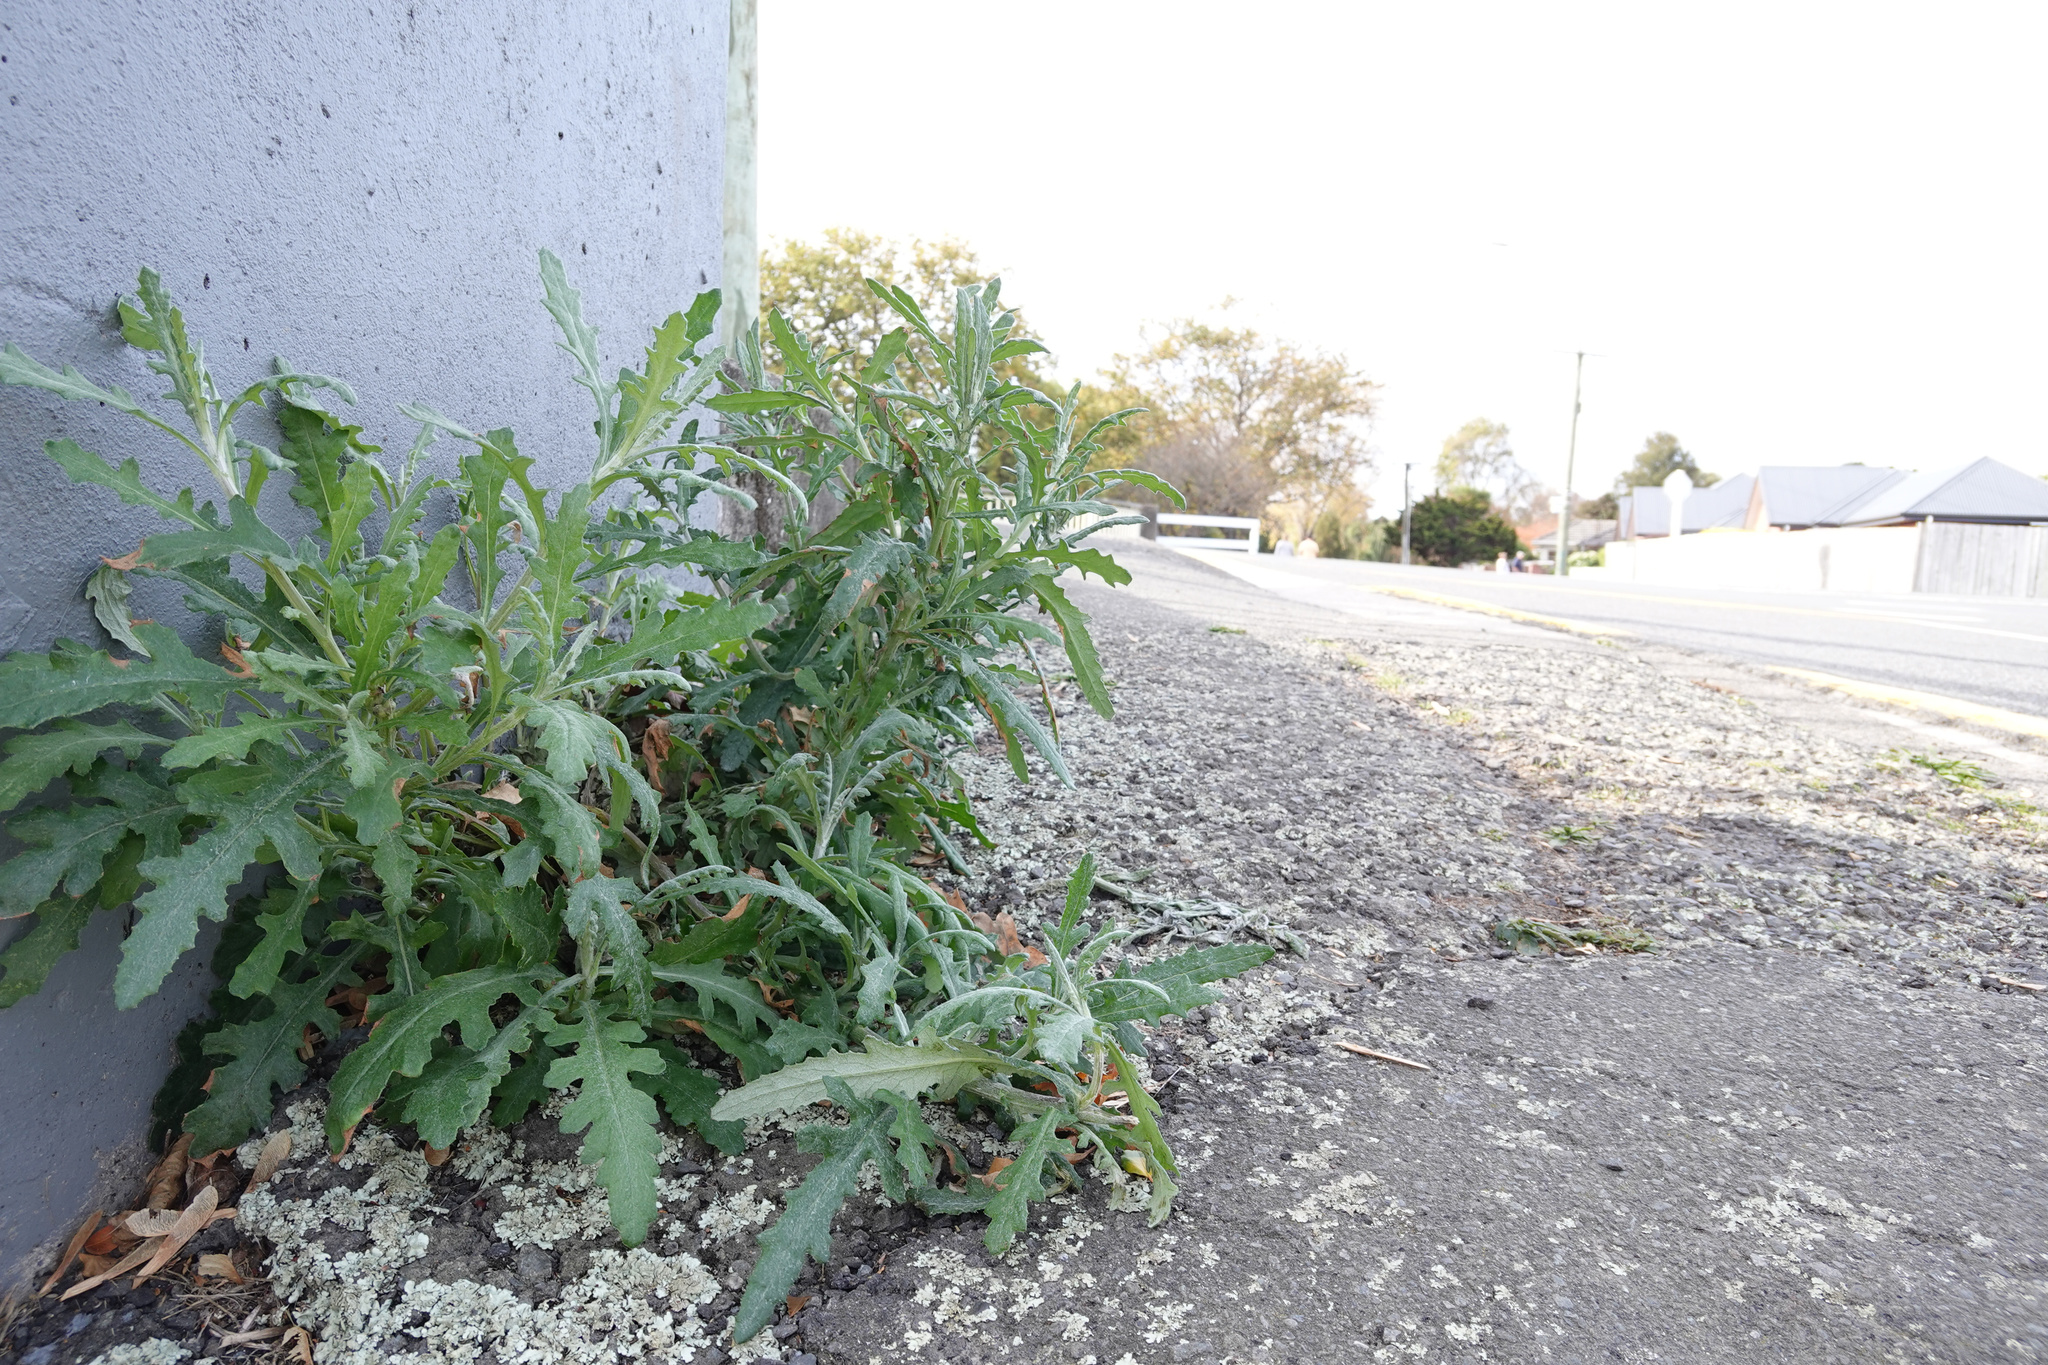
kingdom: Plantae
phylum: Tracheophyta
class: Magnoliopsida
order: Asterales
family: Asteraceae
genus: Senecio
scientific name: Senecio glomeratus
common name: Cutleaf burnweed
